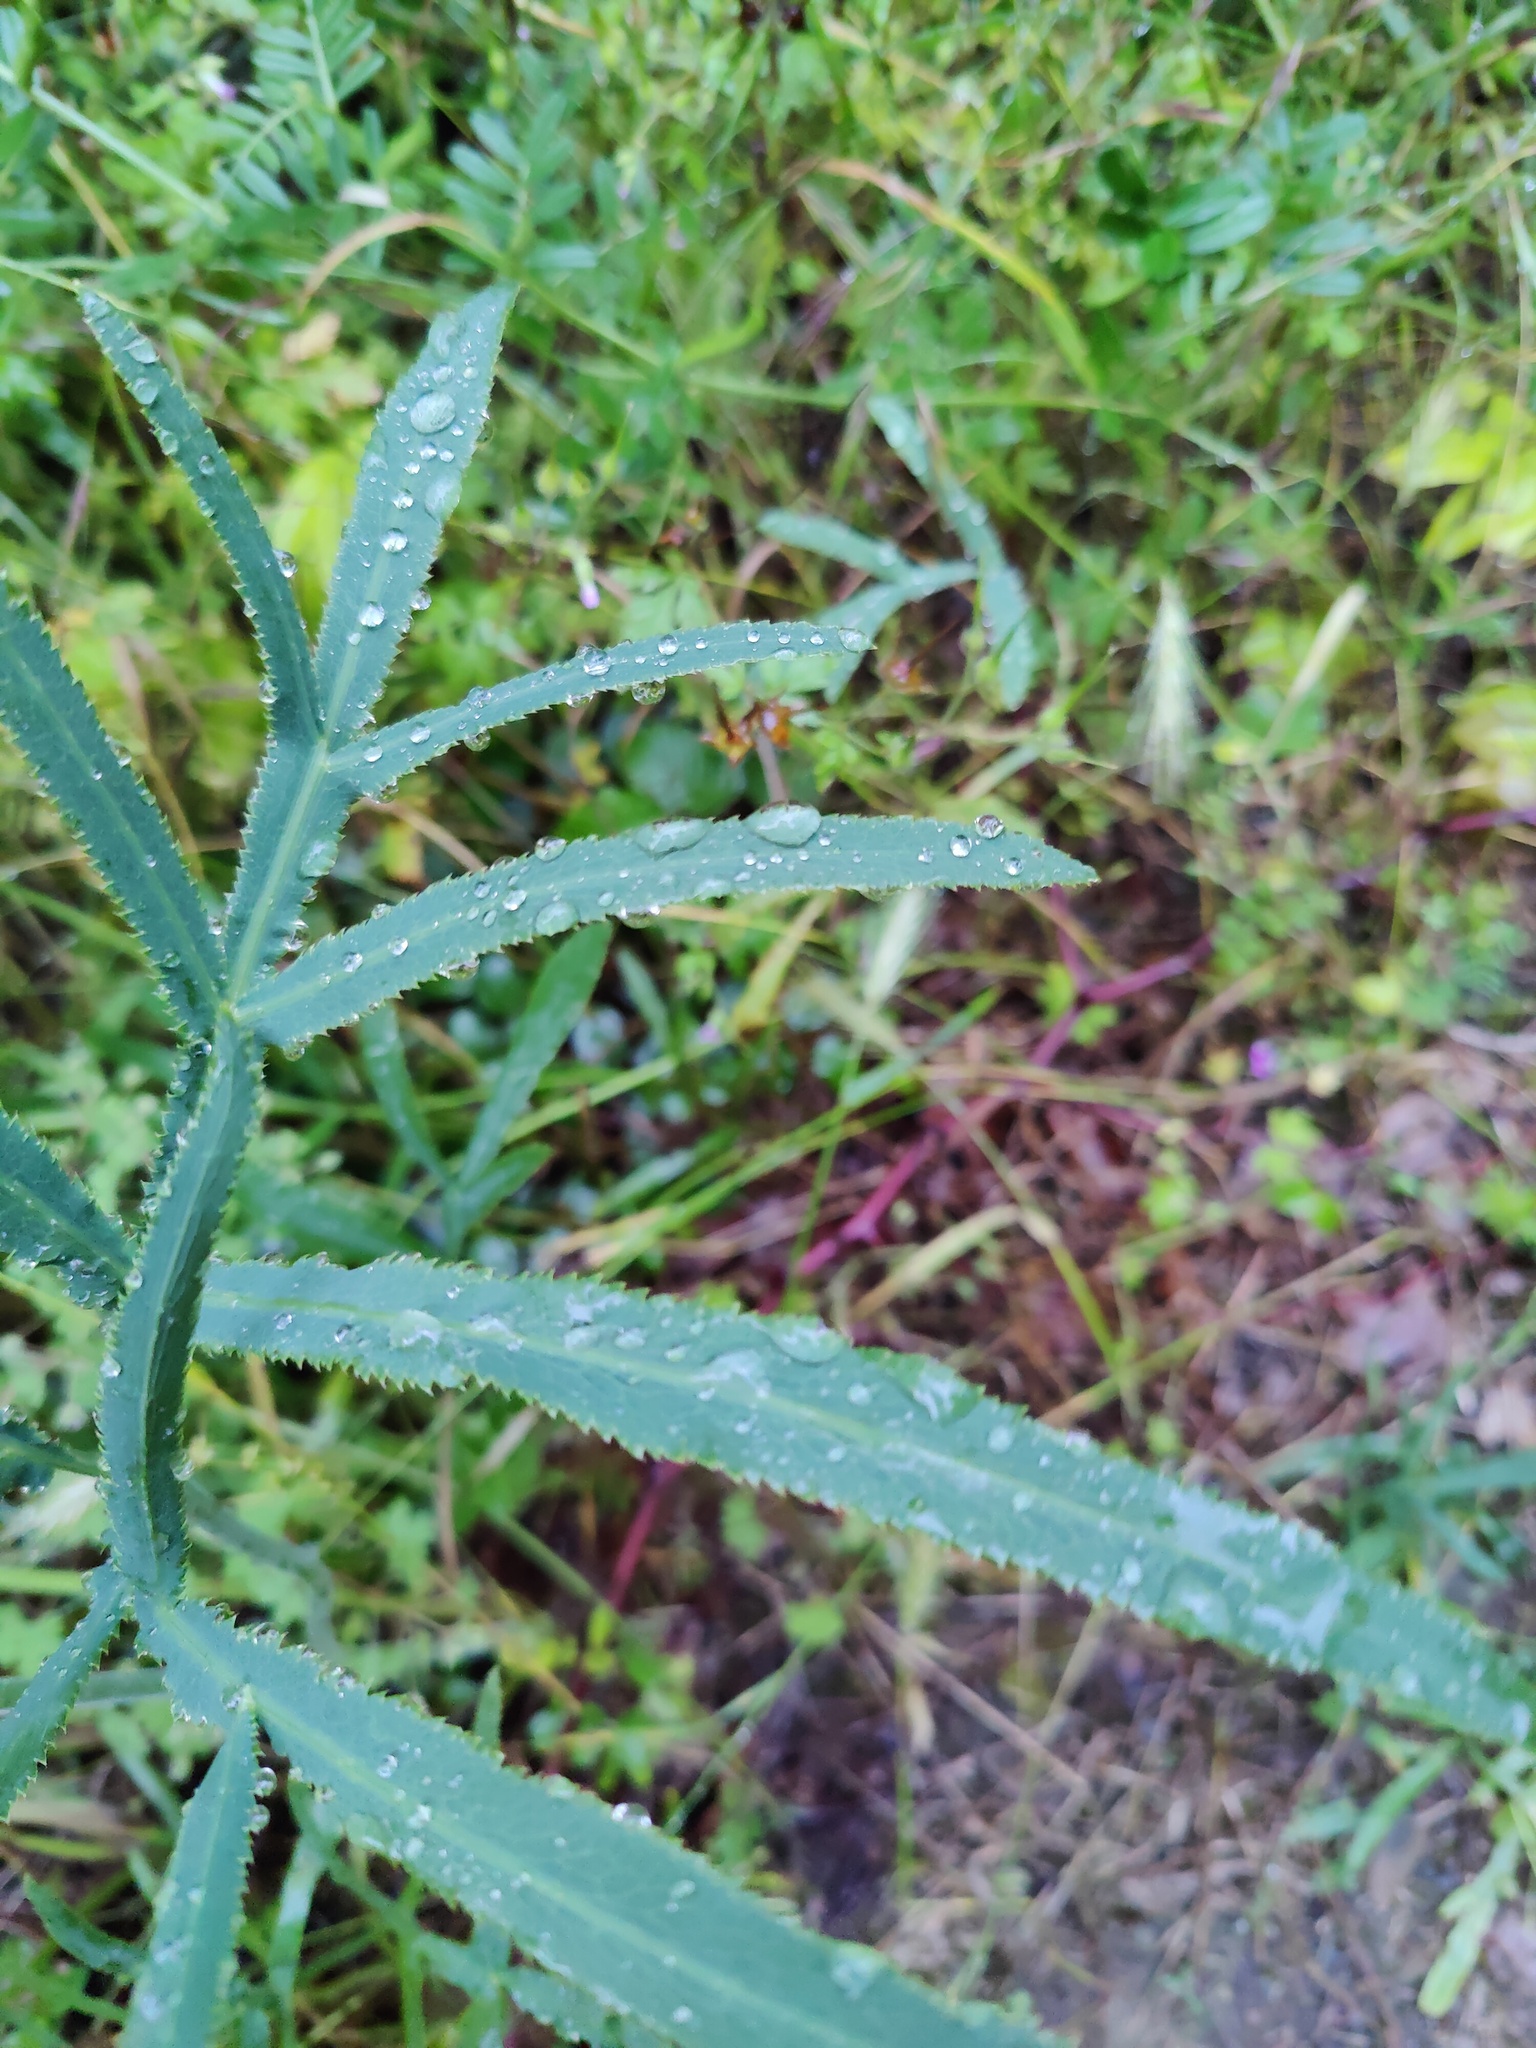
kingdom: Plantae
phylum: Tracheophyta
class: Magnoliopsida
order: Apiales
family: Apiaceae
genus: Falcaria
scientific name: Falcaria vulgaris
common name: Longleaf
